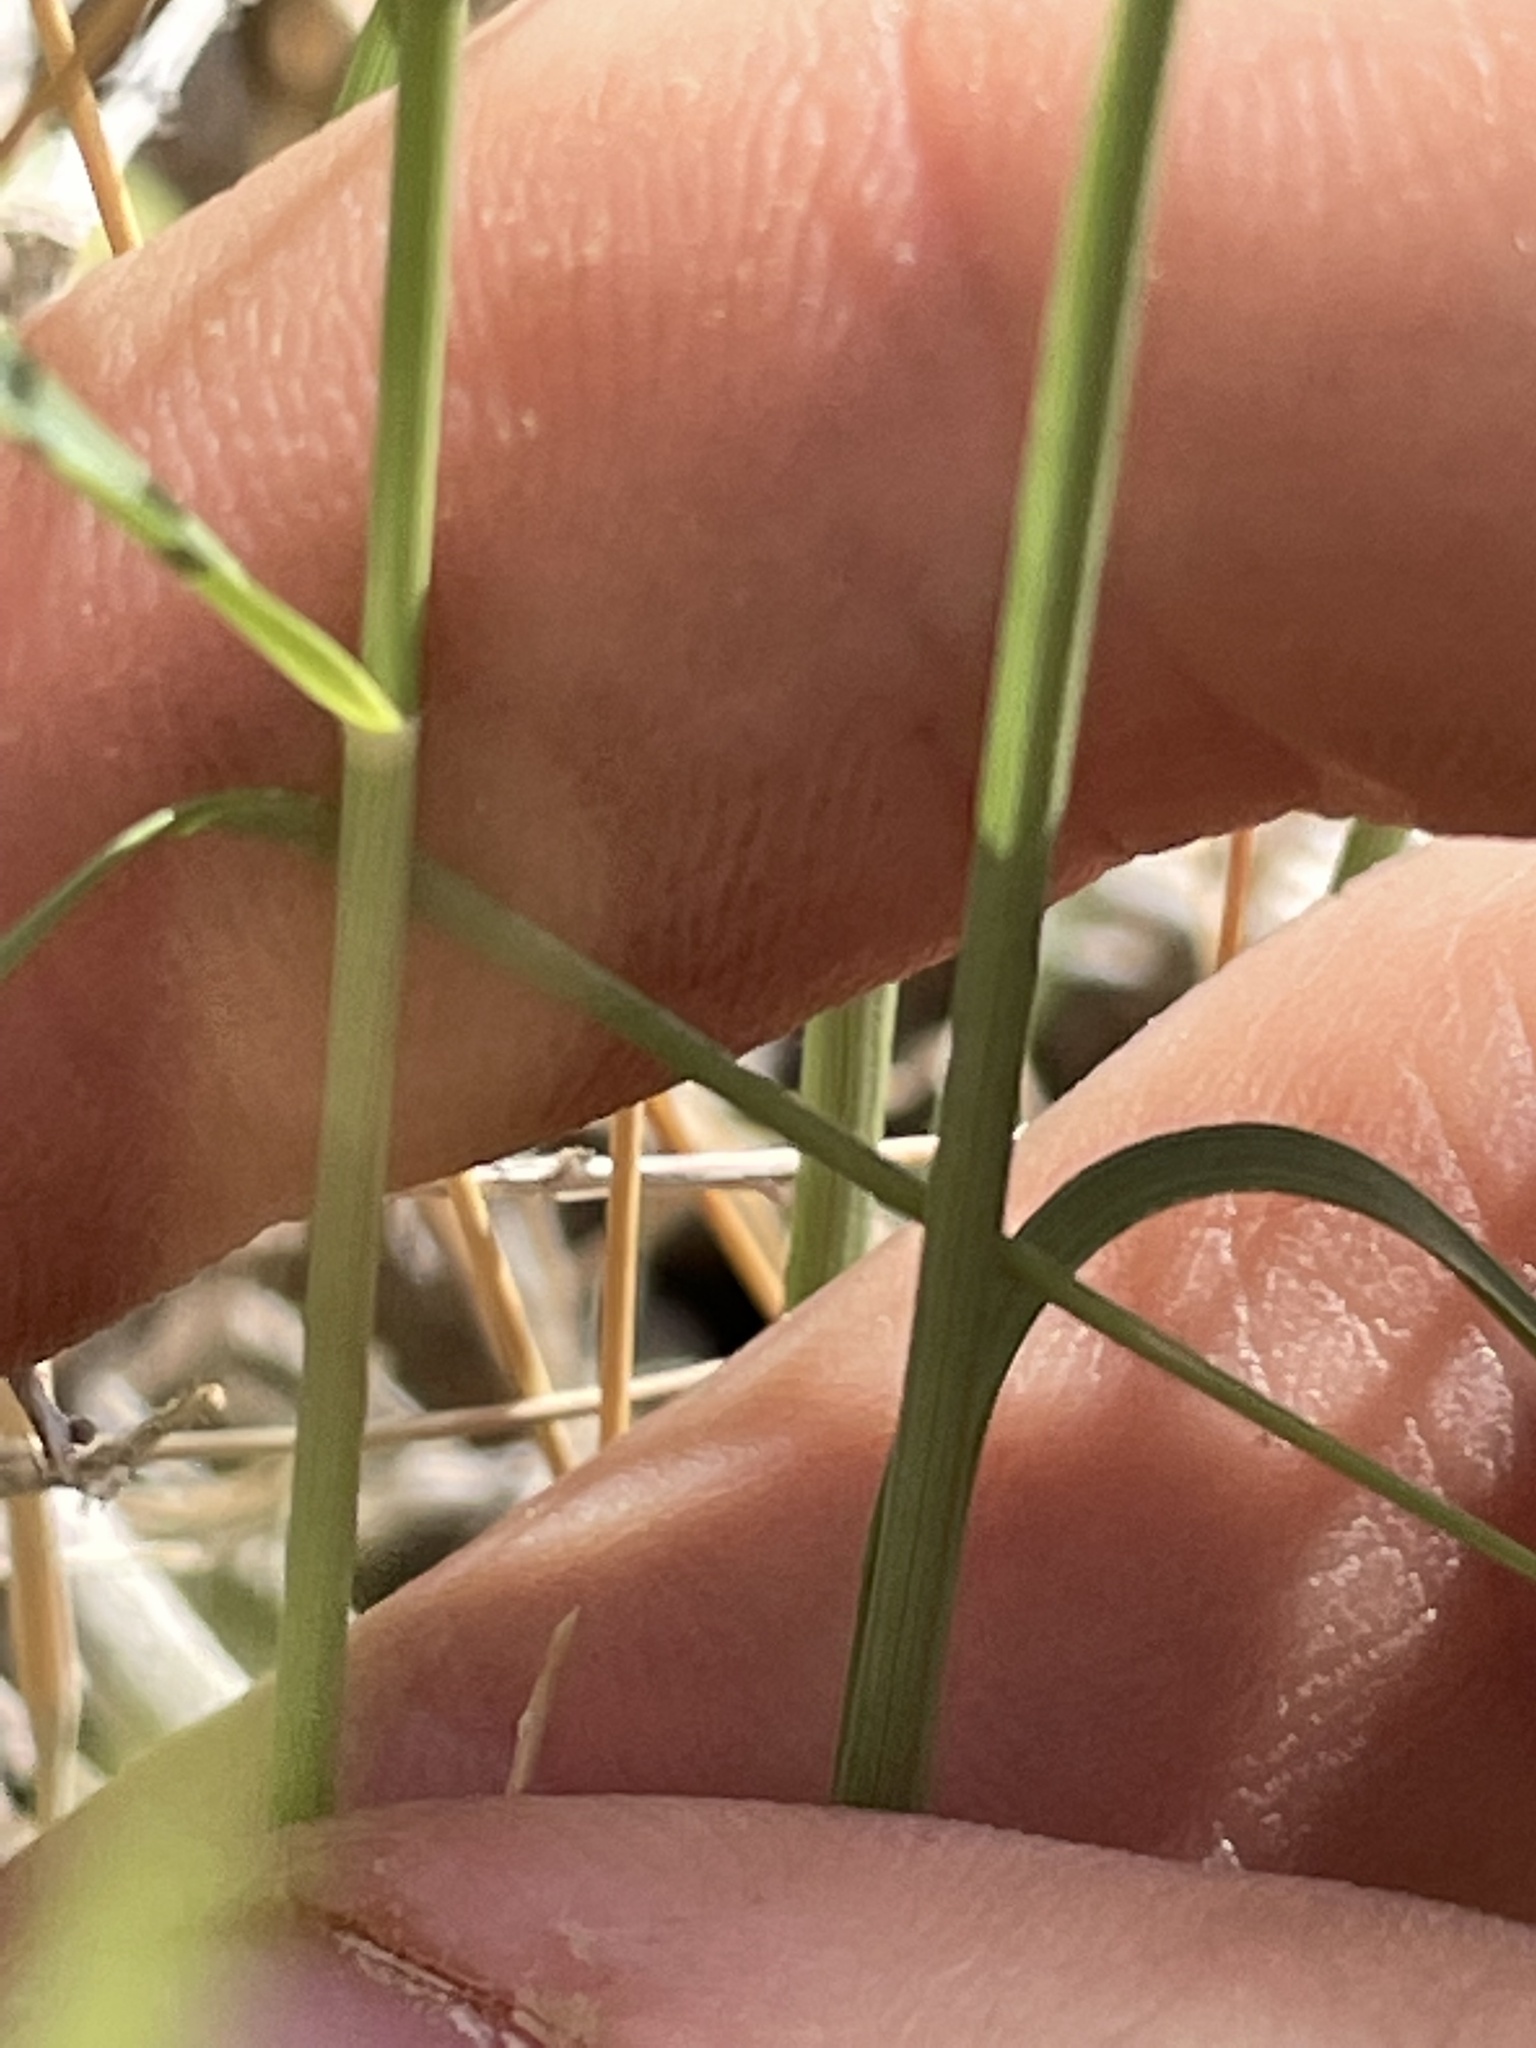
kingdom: Plantae
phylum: Tracheophyta
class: Liliopsida
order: Poales
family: Poaceae
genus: Aristida
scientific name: Aristida purpurea
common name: Purple threeawn
